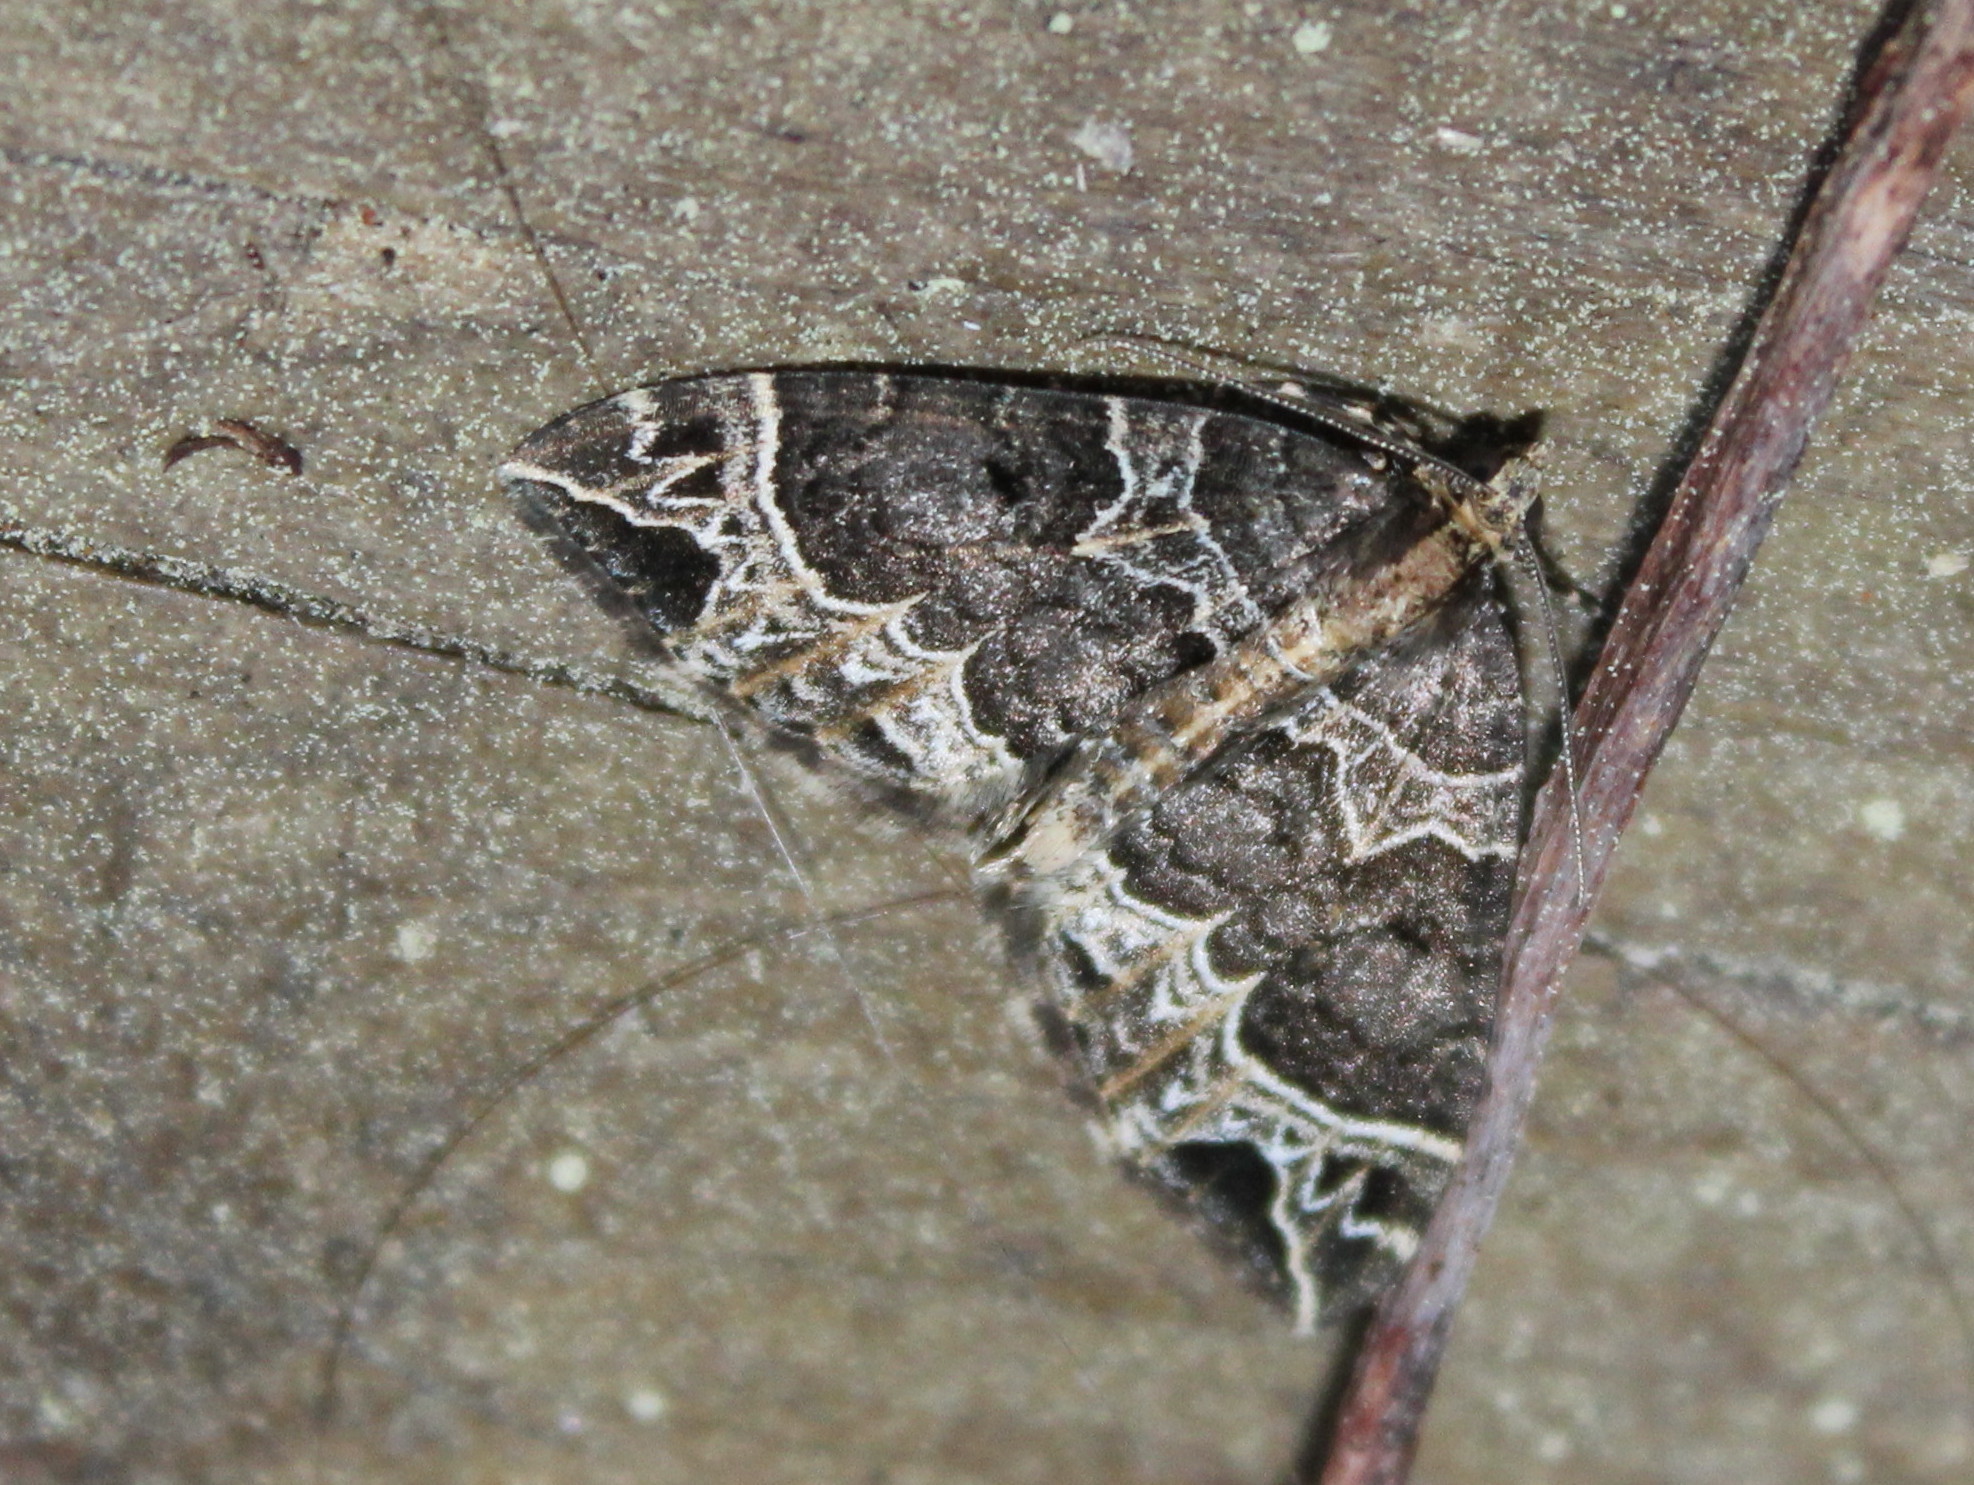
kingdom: Animalia
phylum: Arthropoda
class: Insecta
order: Lepidoptera
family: Geometridae
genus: Ecliptopera
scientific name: Ecliptopera silaceata
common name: Small phoenix
